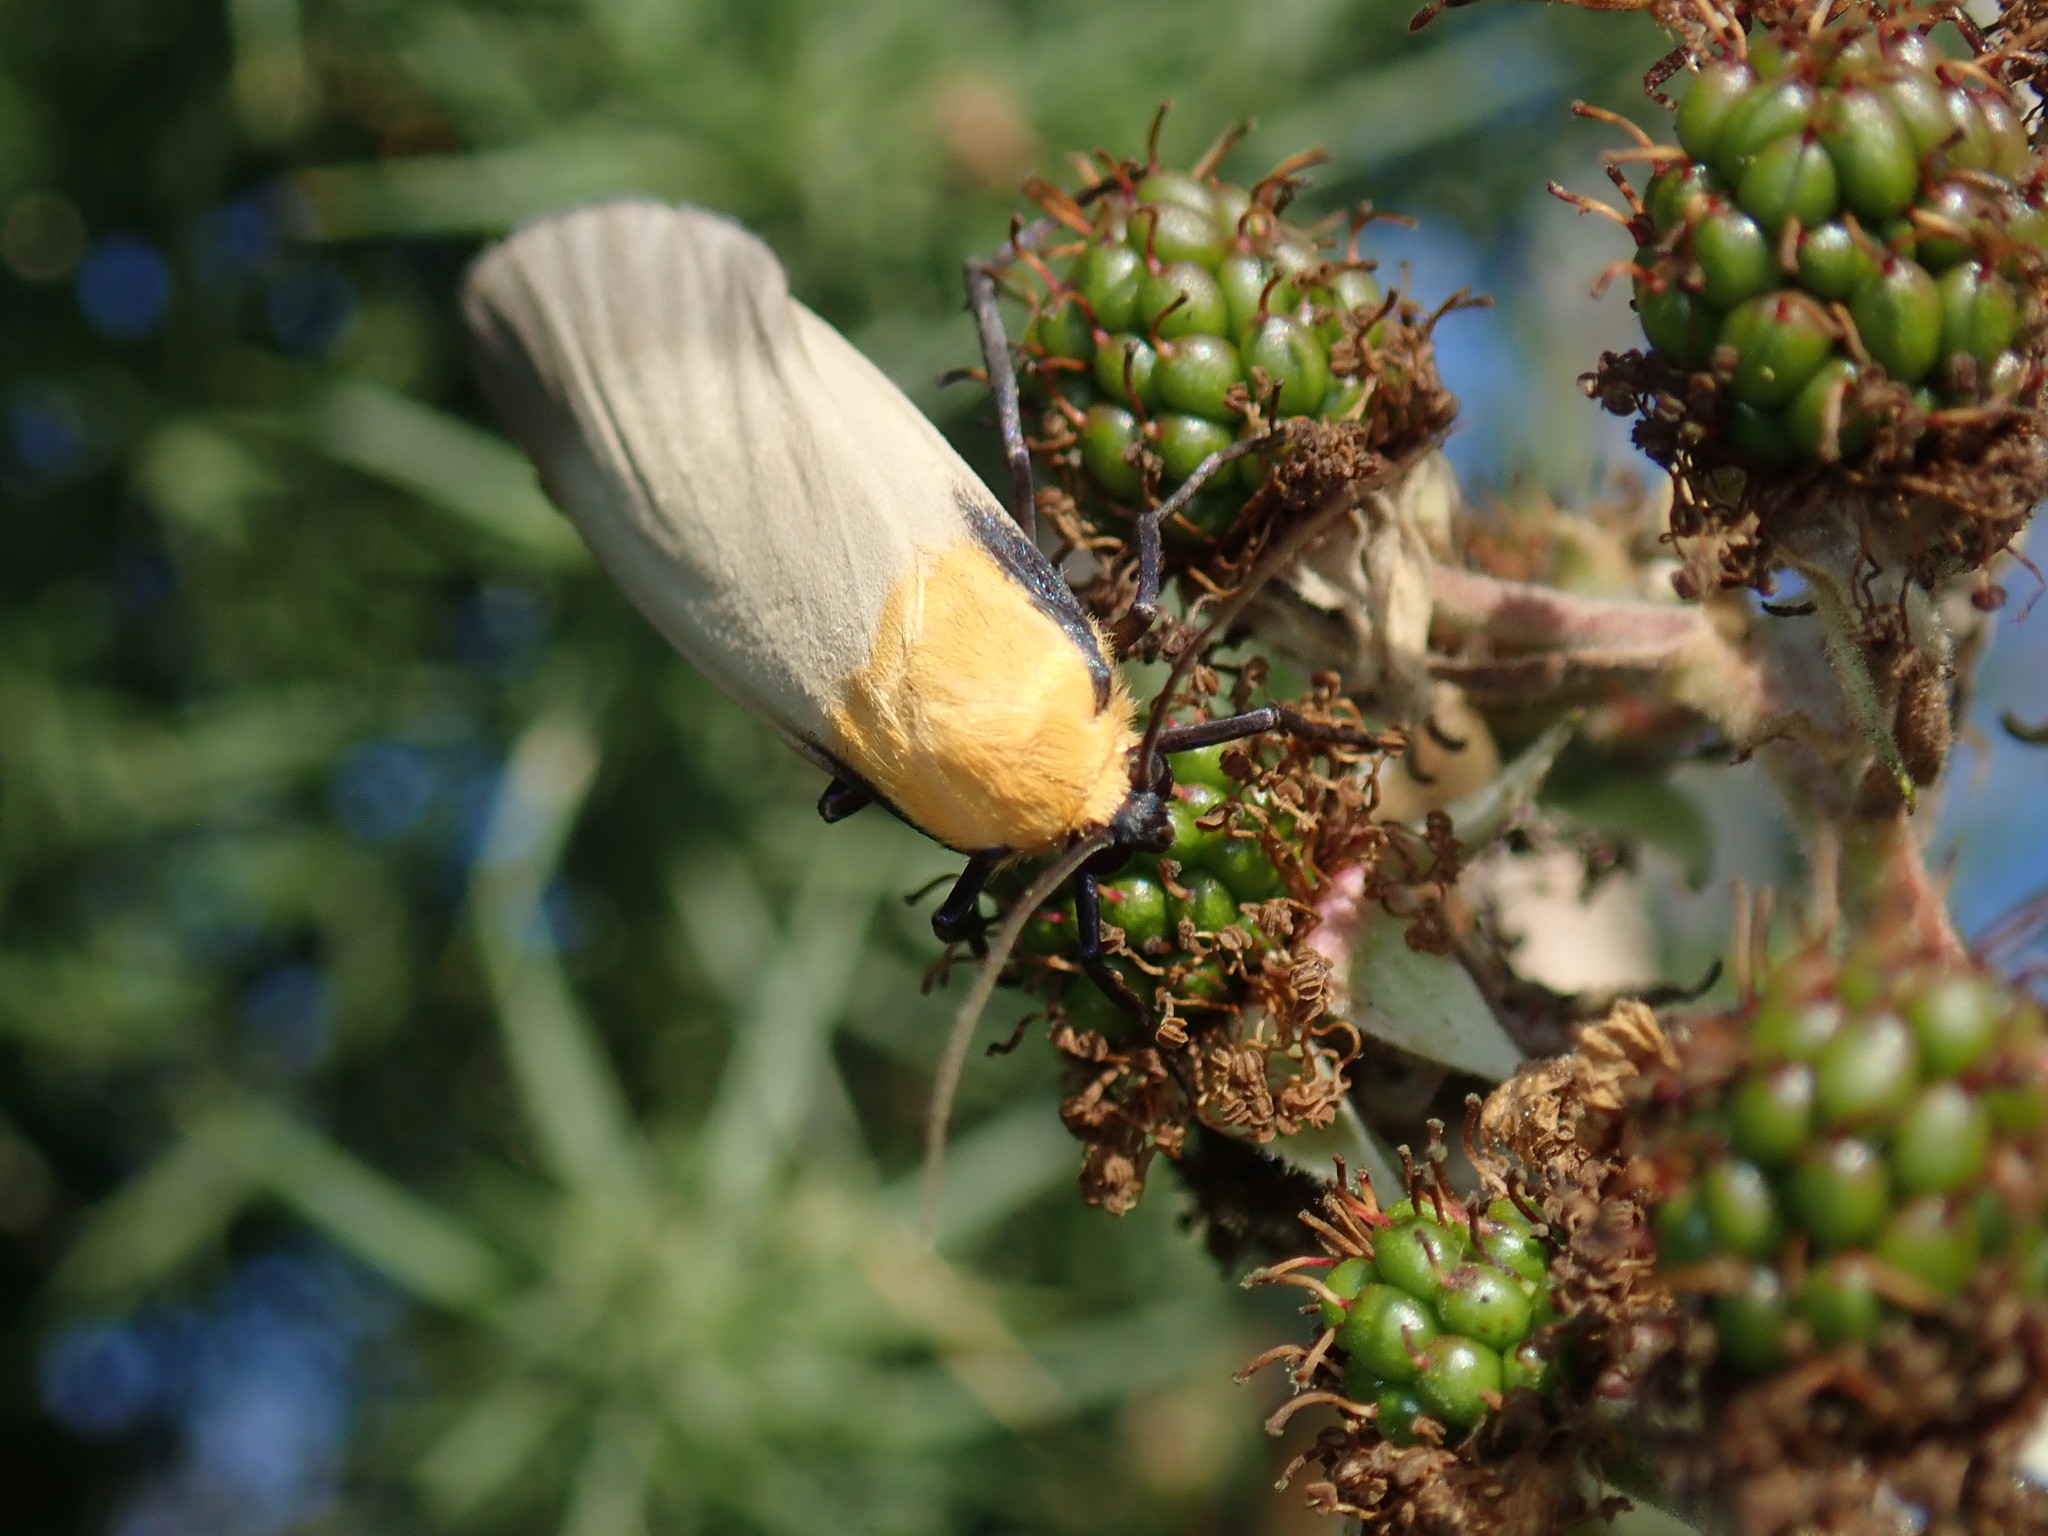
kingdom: Animalia
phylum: Arthropoda
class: Insecta
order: Lepidoptera
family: Erebidae
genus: Lithosia
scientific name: Lithosia quadra
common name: Four-spotted footman
